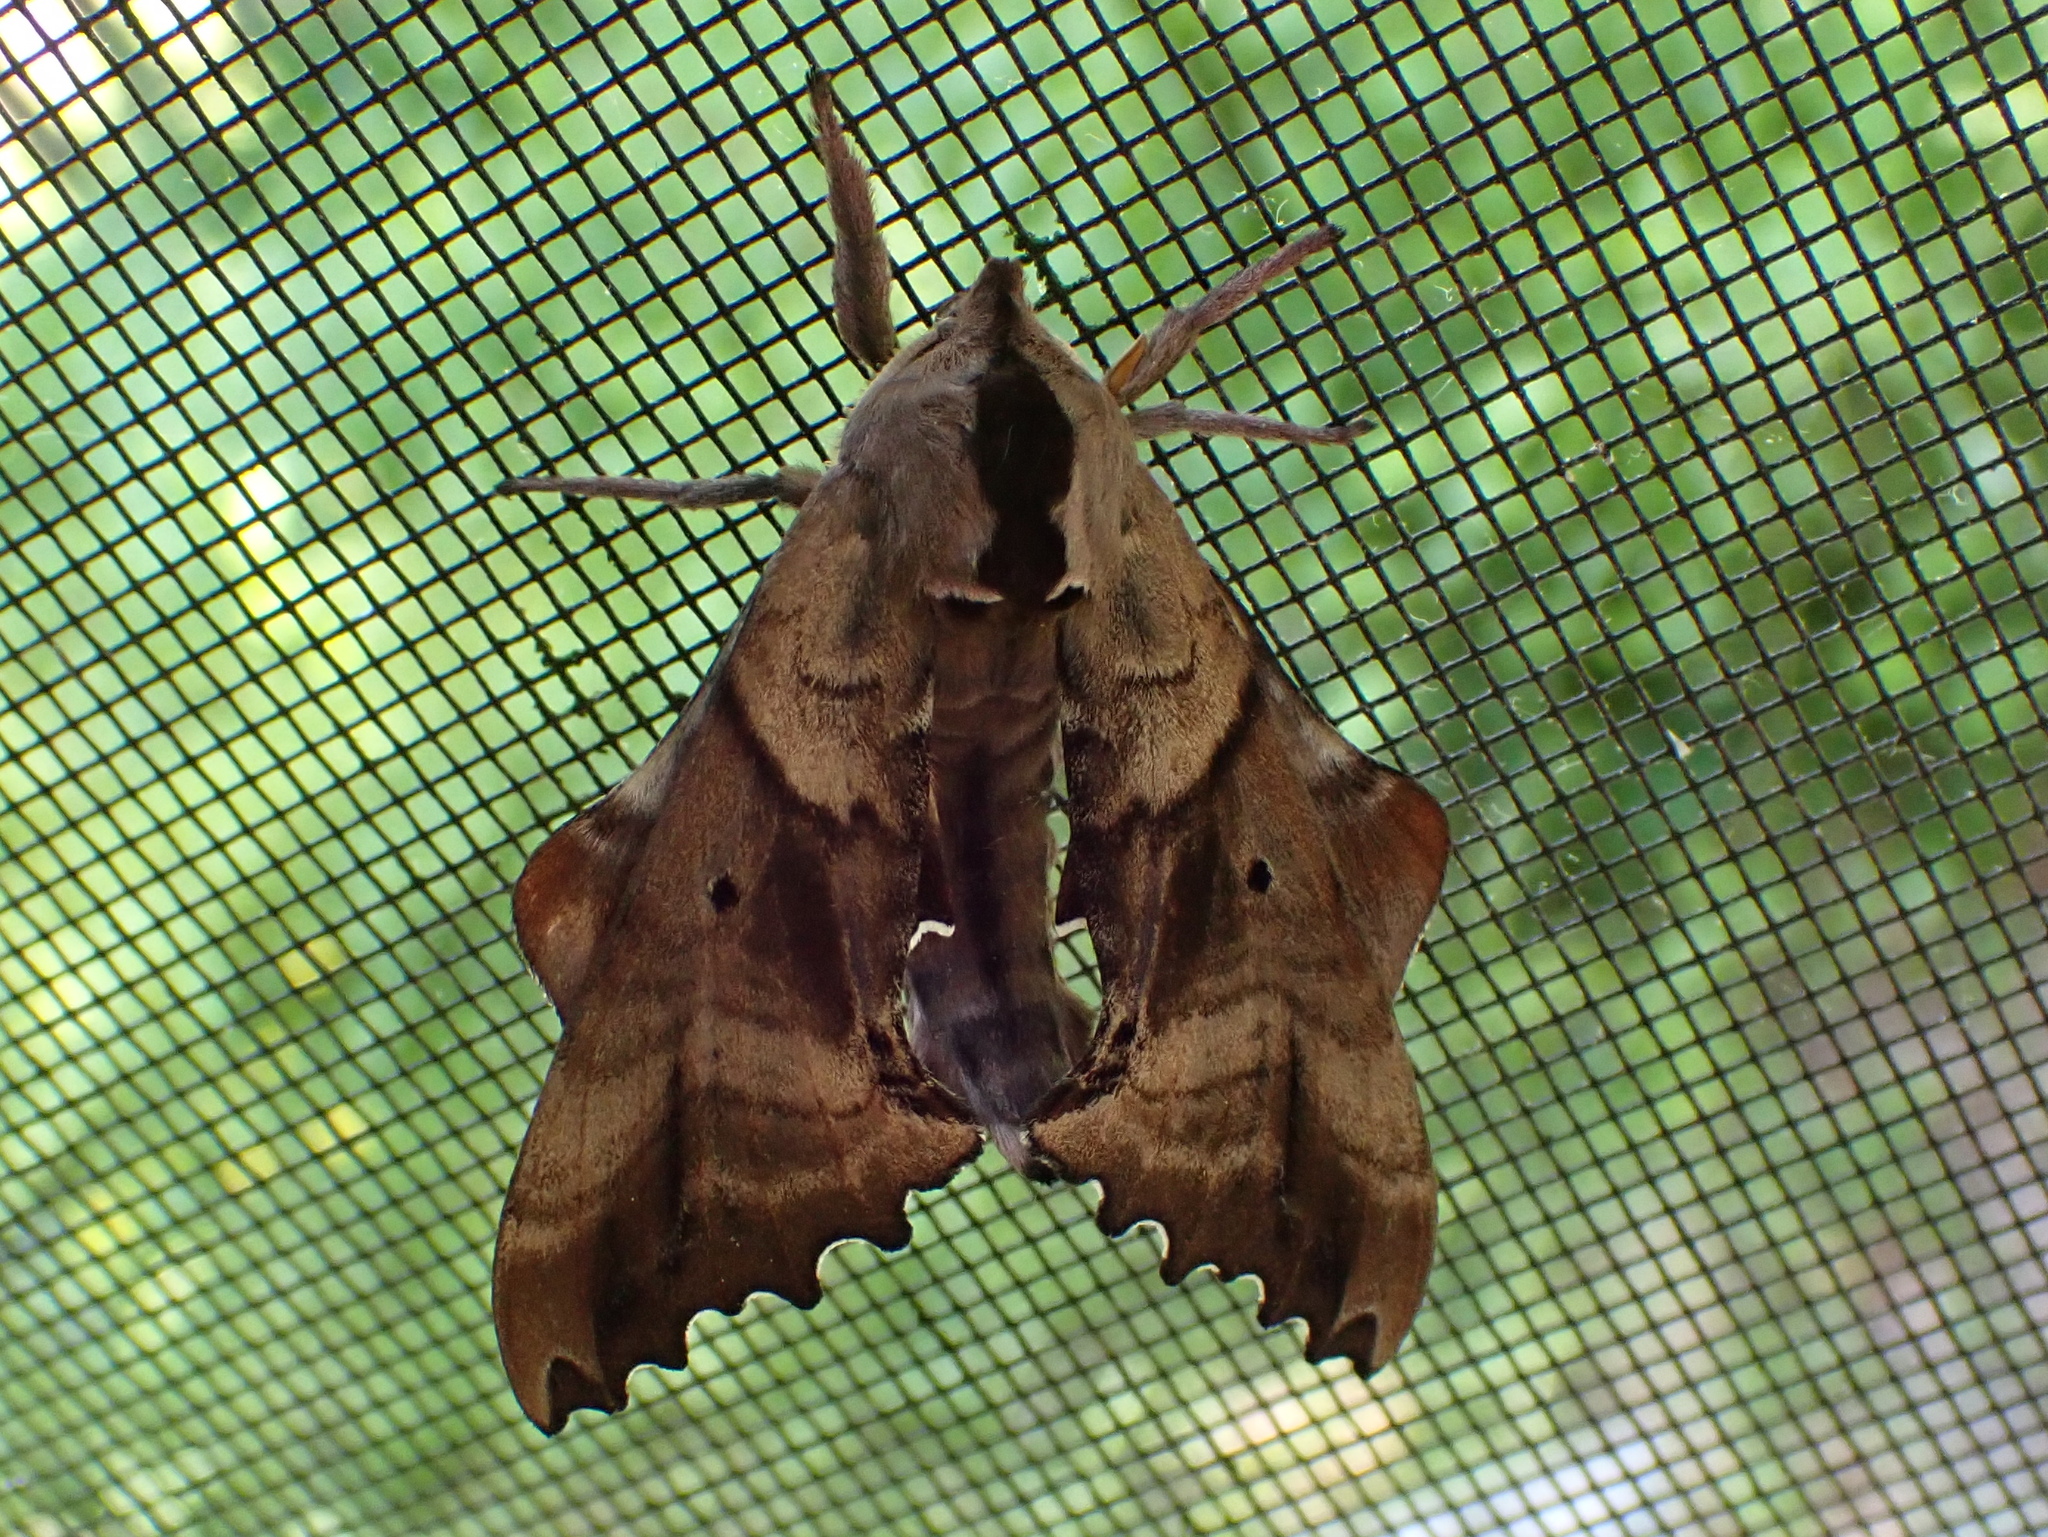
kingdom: Animalia
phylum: Arthropoda
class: Insecta
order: Lepidoptera
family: Sphingidae
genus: Paonias
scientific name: Paonias excaecata
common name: Blind-eyed sphinx
